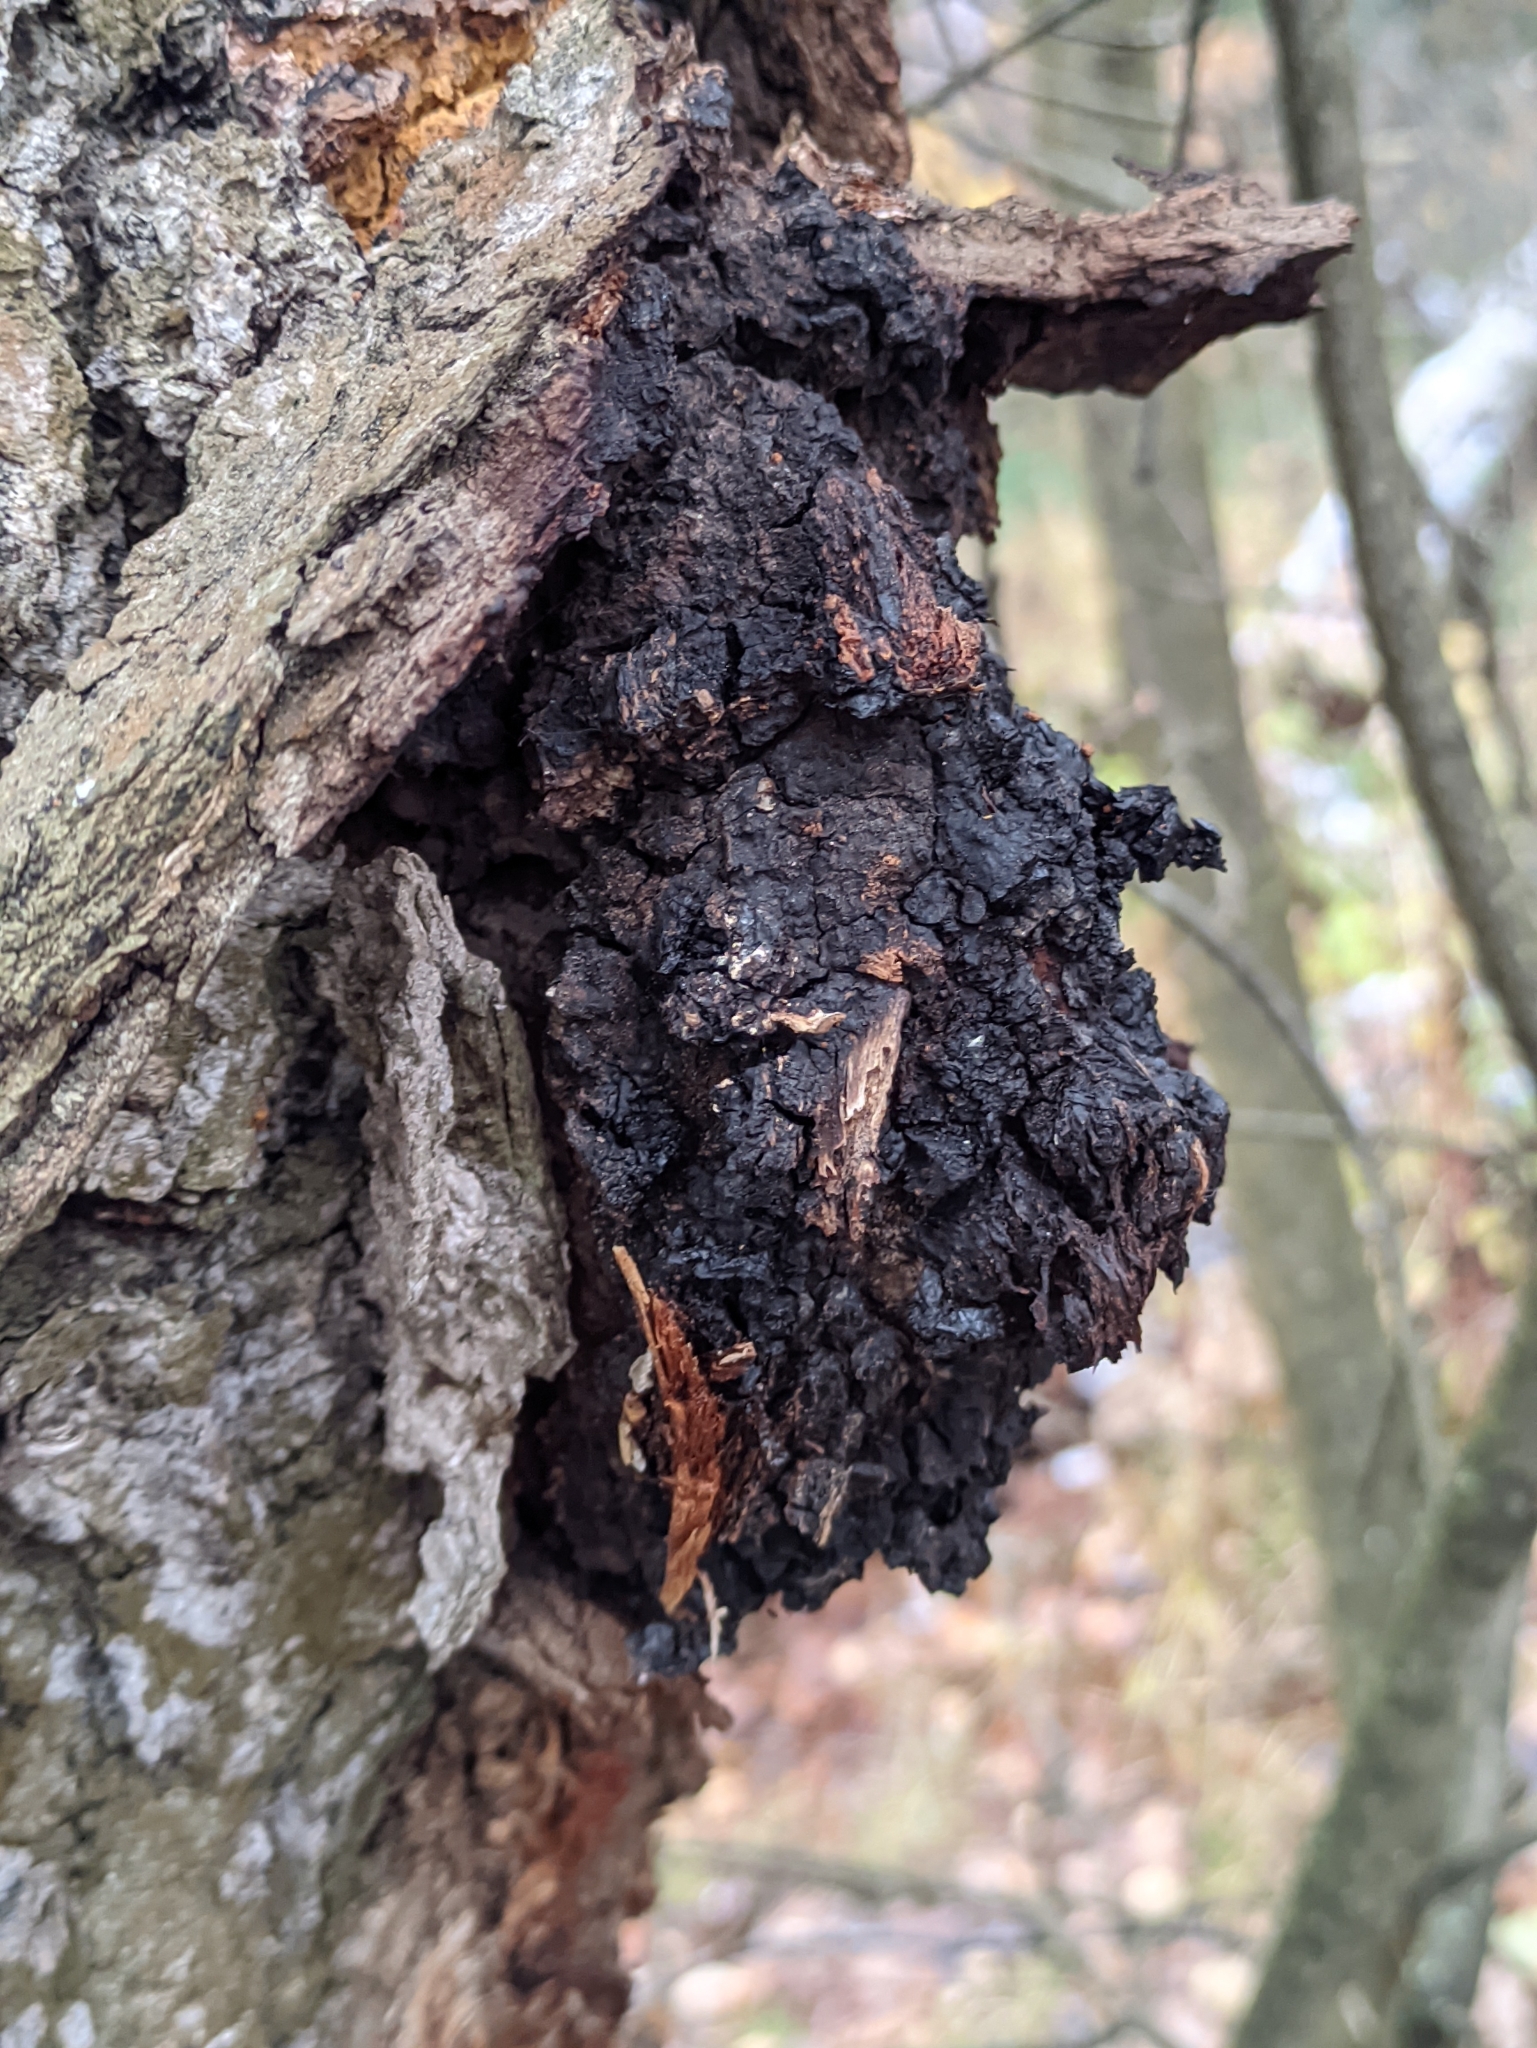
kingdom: Fungi
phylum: Basidiomycota
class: Agaricomycetes
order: Hymenochaetales
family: Hymenochaetaceae
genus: Inonotus
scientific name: Inonotus obliquus
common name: Chaga
